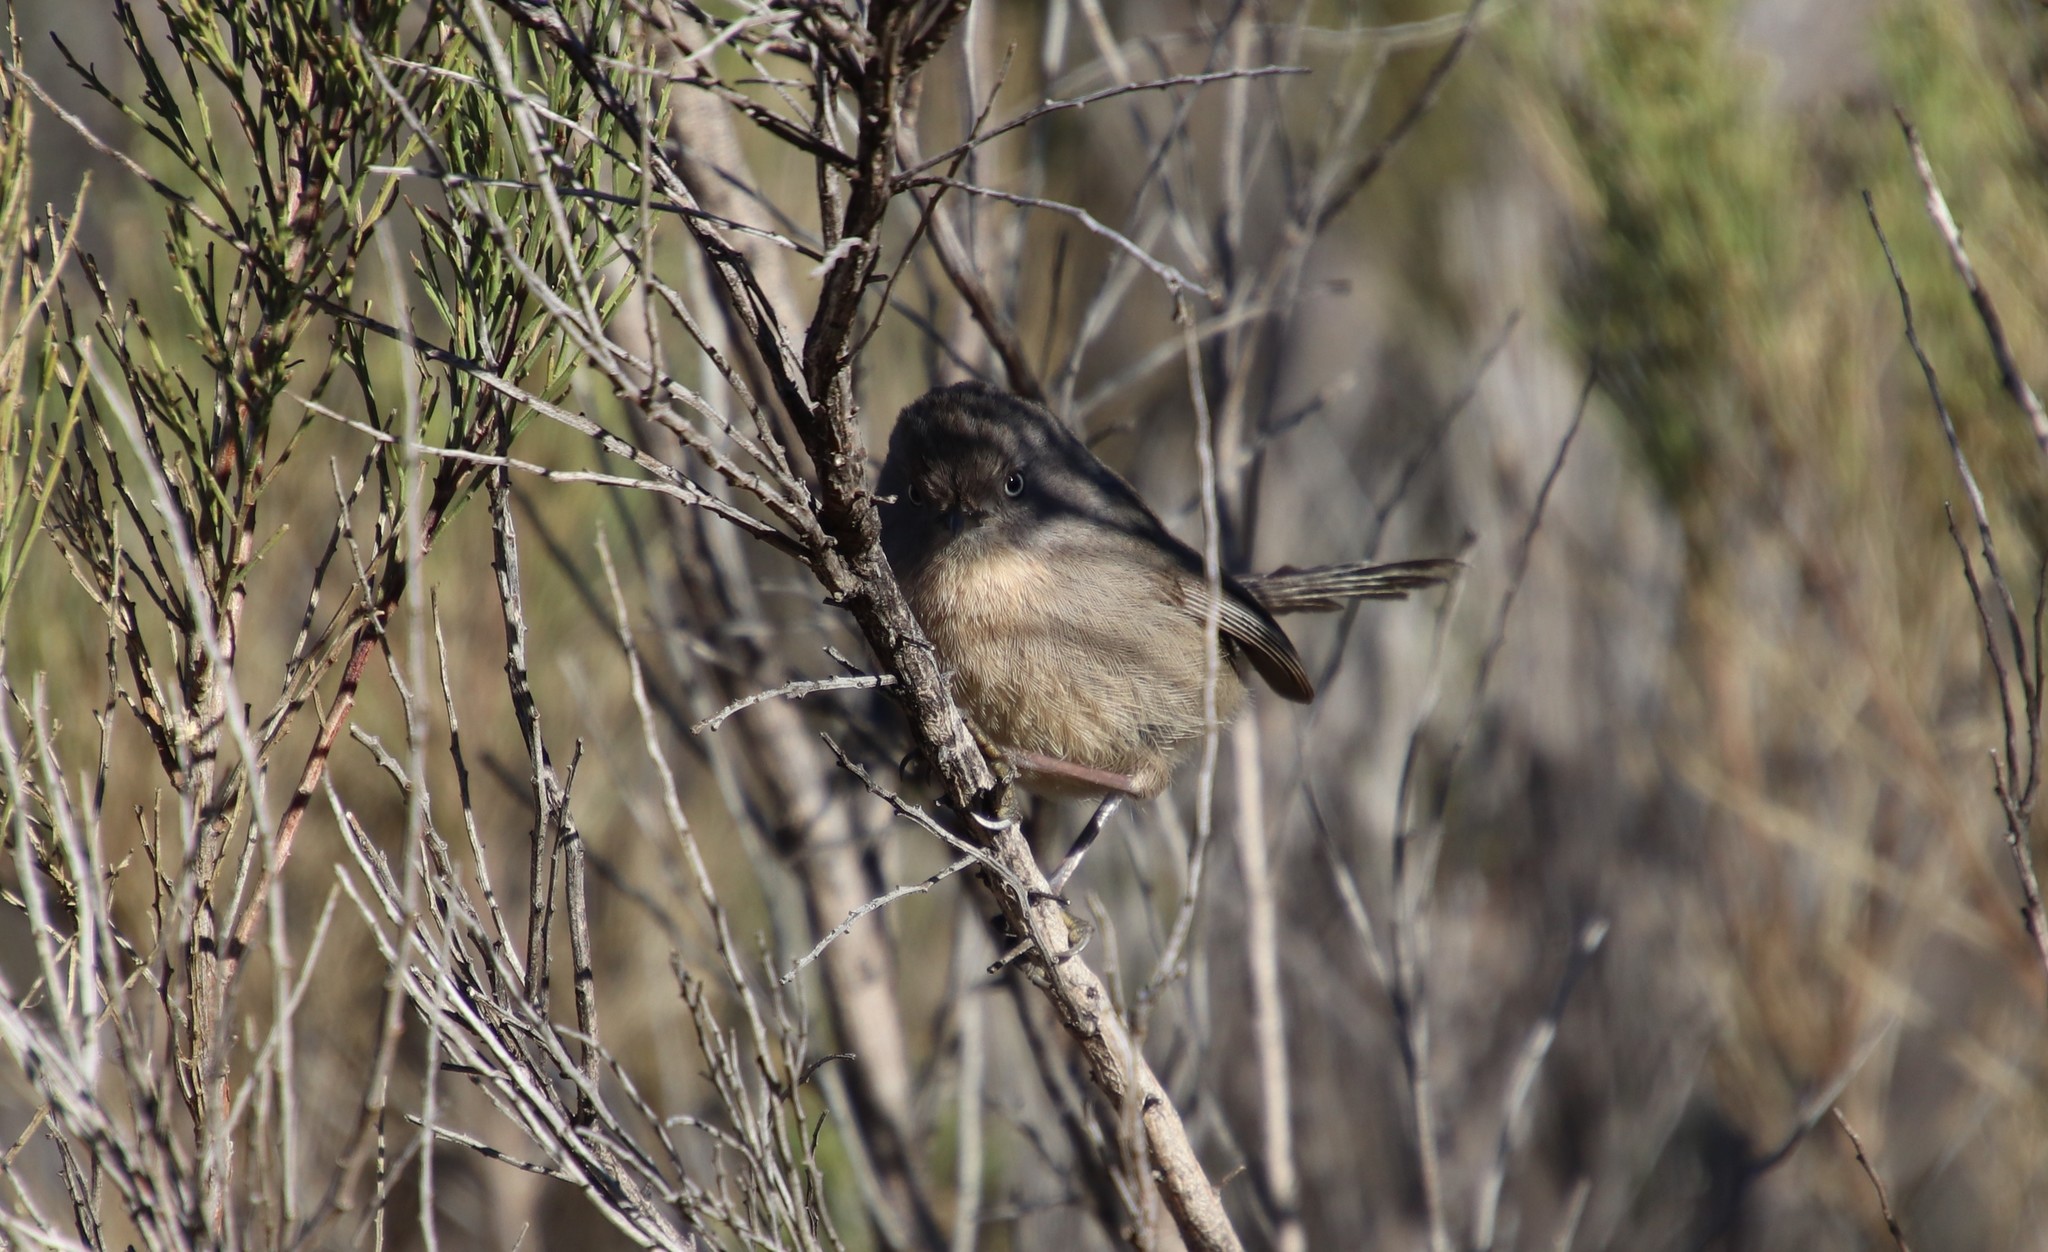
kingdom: Animalia
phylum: Chordata
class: Aves
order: Passeriformes
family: Sylviidae
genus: Chamaea
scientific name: Chamaea fasciata
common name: Wrentit
